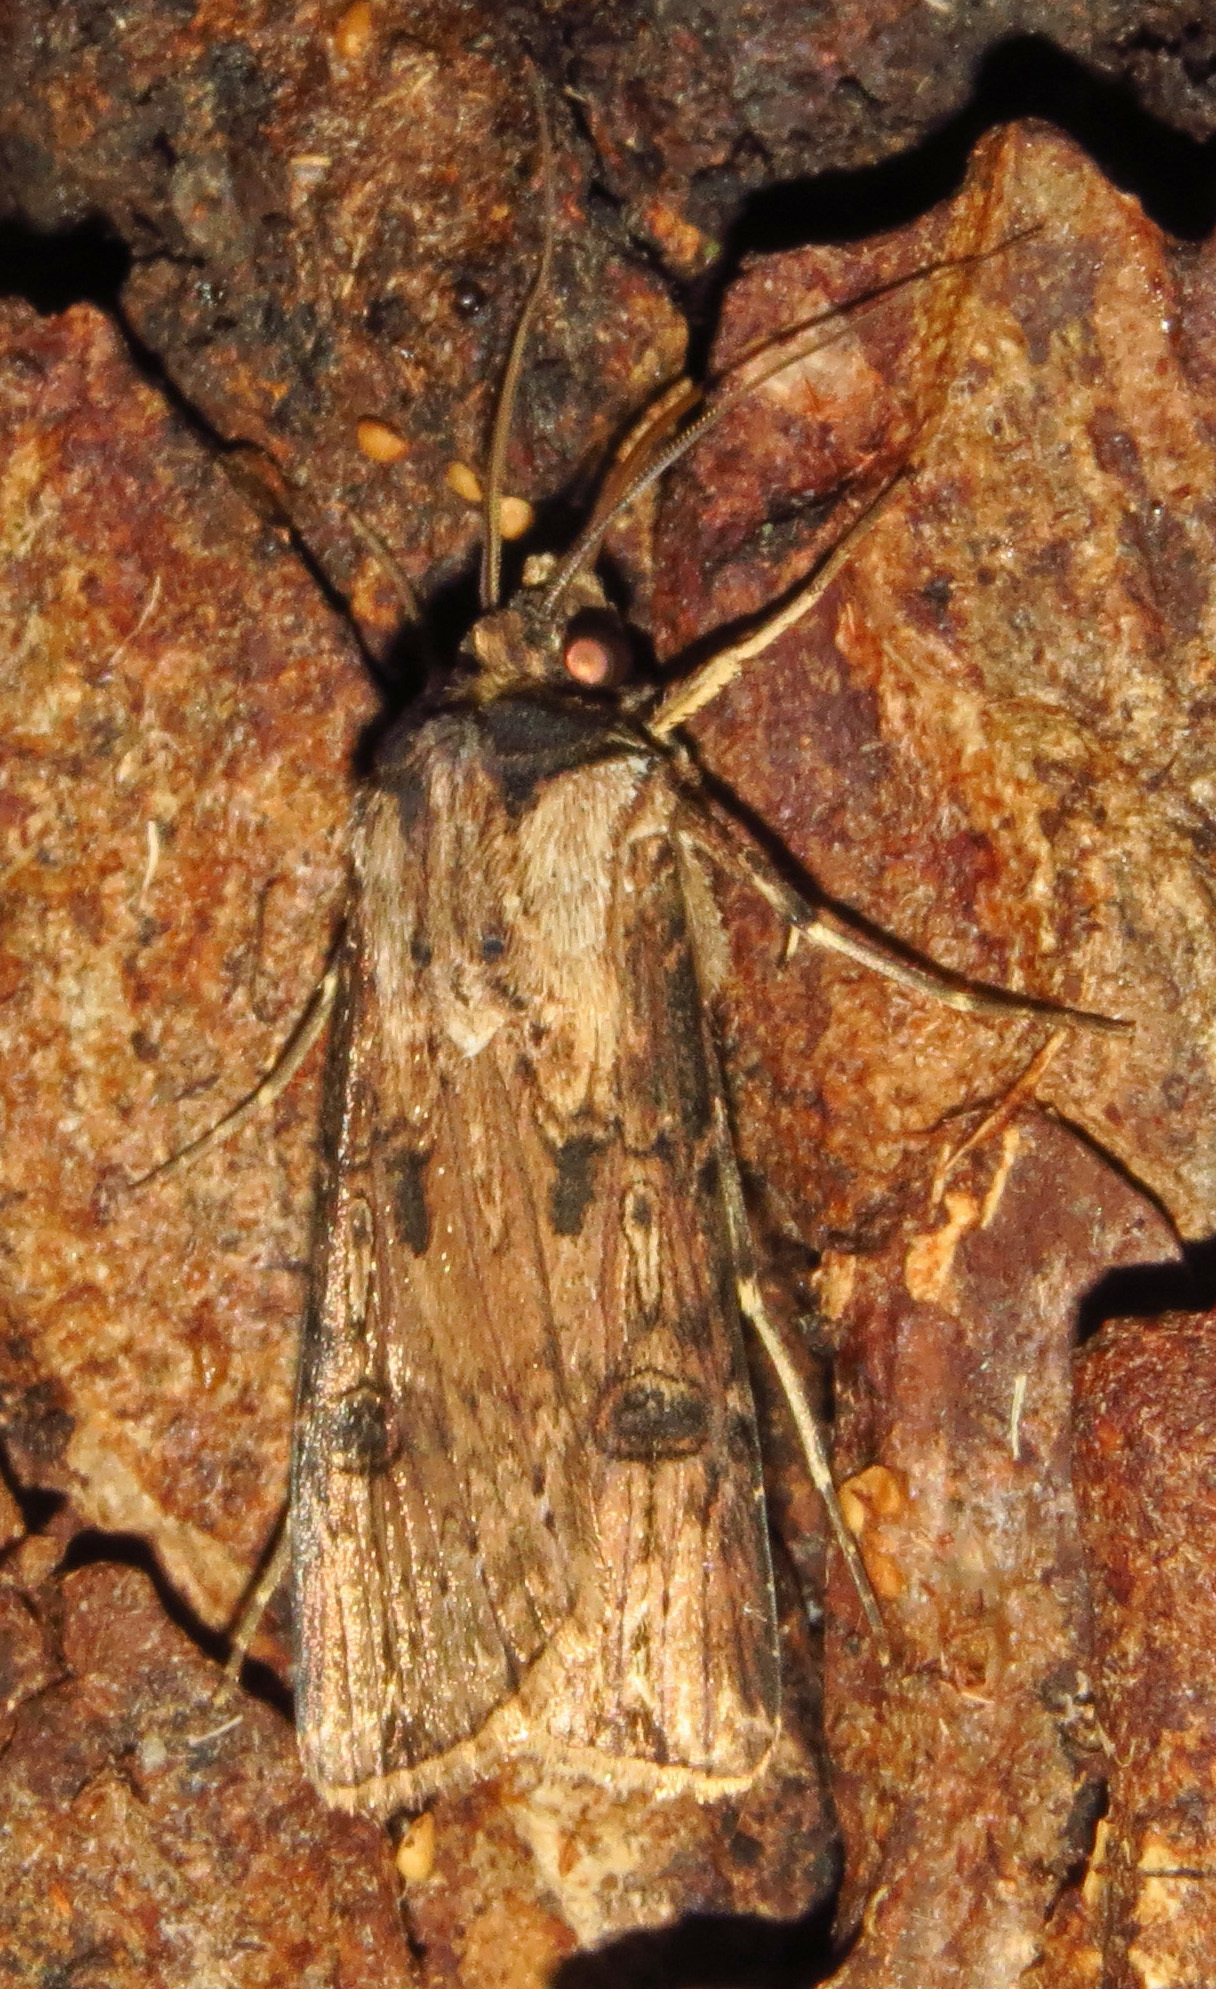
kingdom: Animalia
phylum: Arthropoda
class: Insecta
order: Lepidoptera
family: Noctuidae
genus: Agrotis
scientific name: Agrotis malefida
